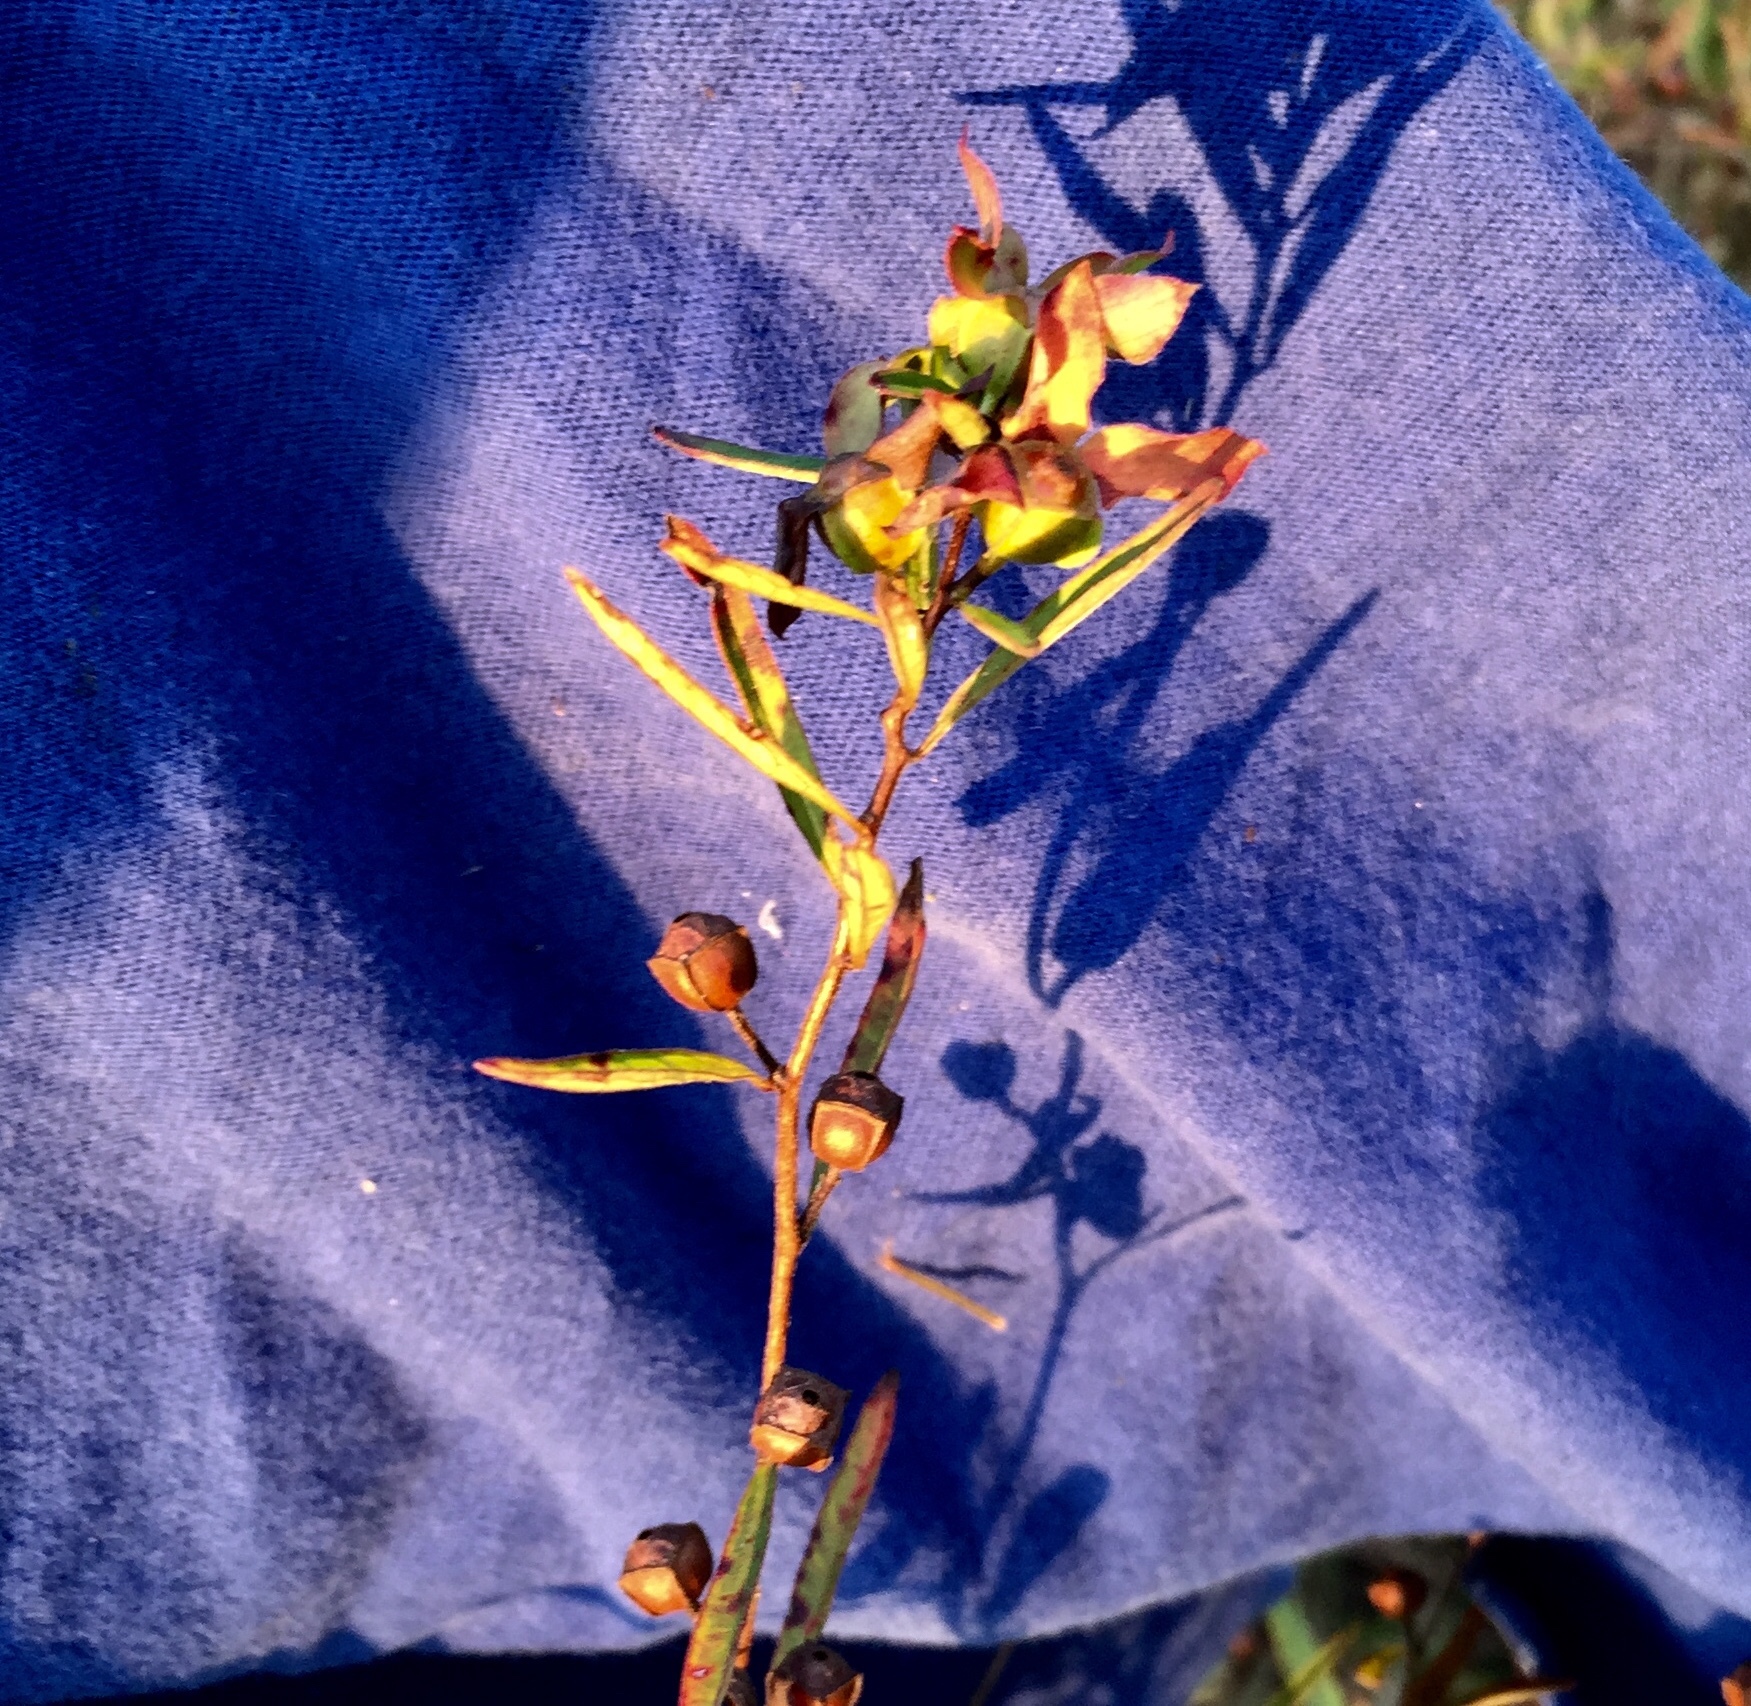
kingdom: Plantae
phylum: Tracheophyta
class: Magnoliopsida
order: Myrtales
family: Onagraceae
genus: Ludwigia
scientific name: Ludwigia alternifolia
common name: Rattlebox
